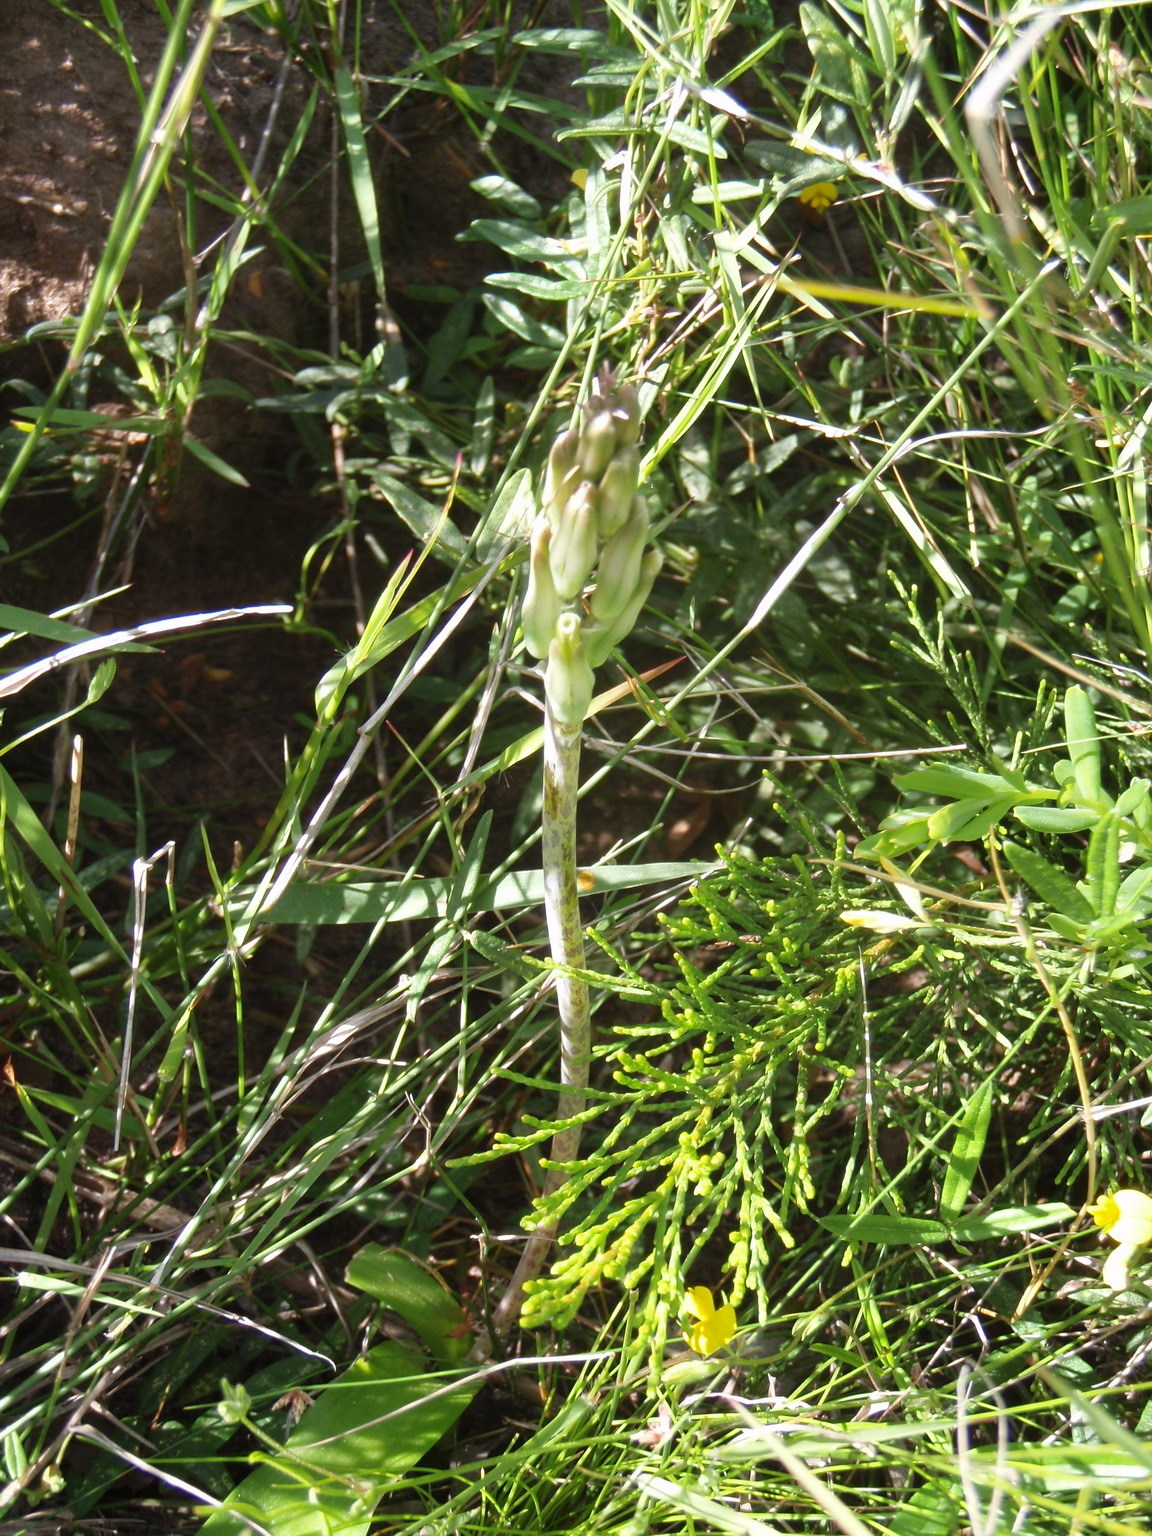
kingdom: Plantae
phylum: Tracheophyta
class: Liliopsida
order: Asparagales
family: Asparagaceae
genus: Lachenalia
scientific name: Lachenalia algoensis
